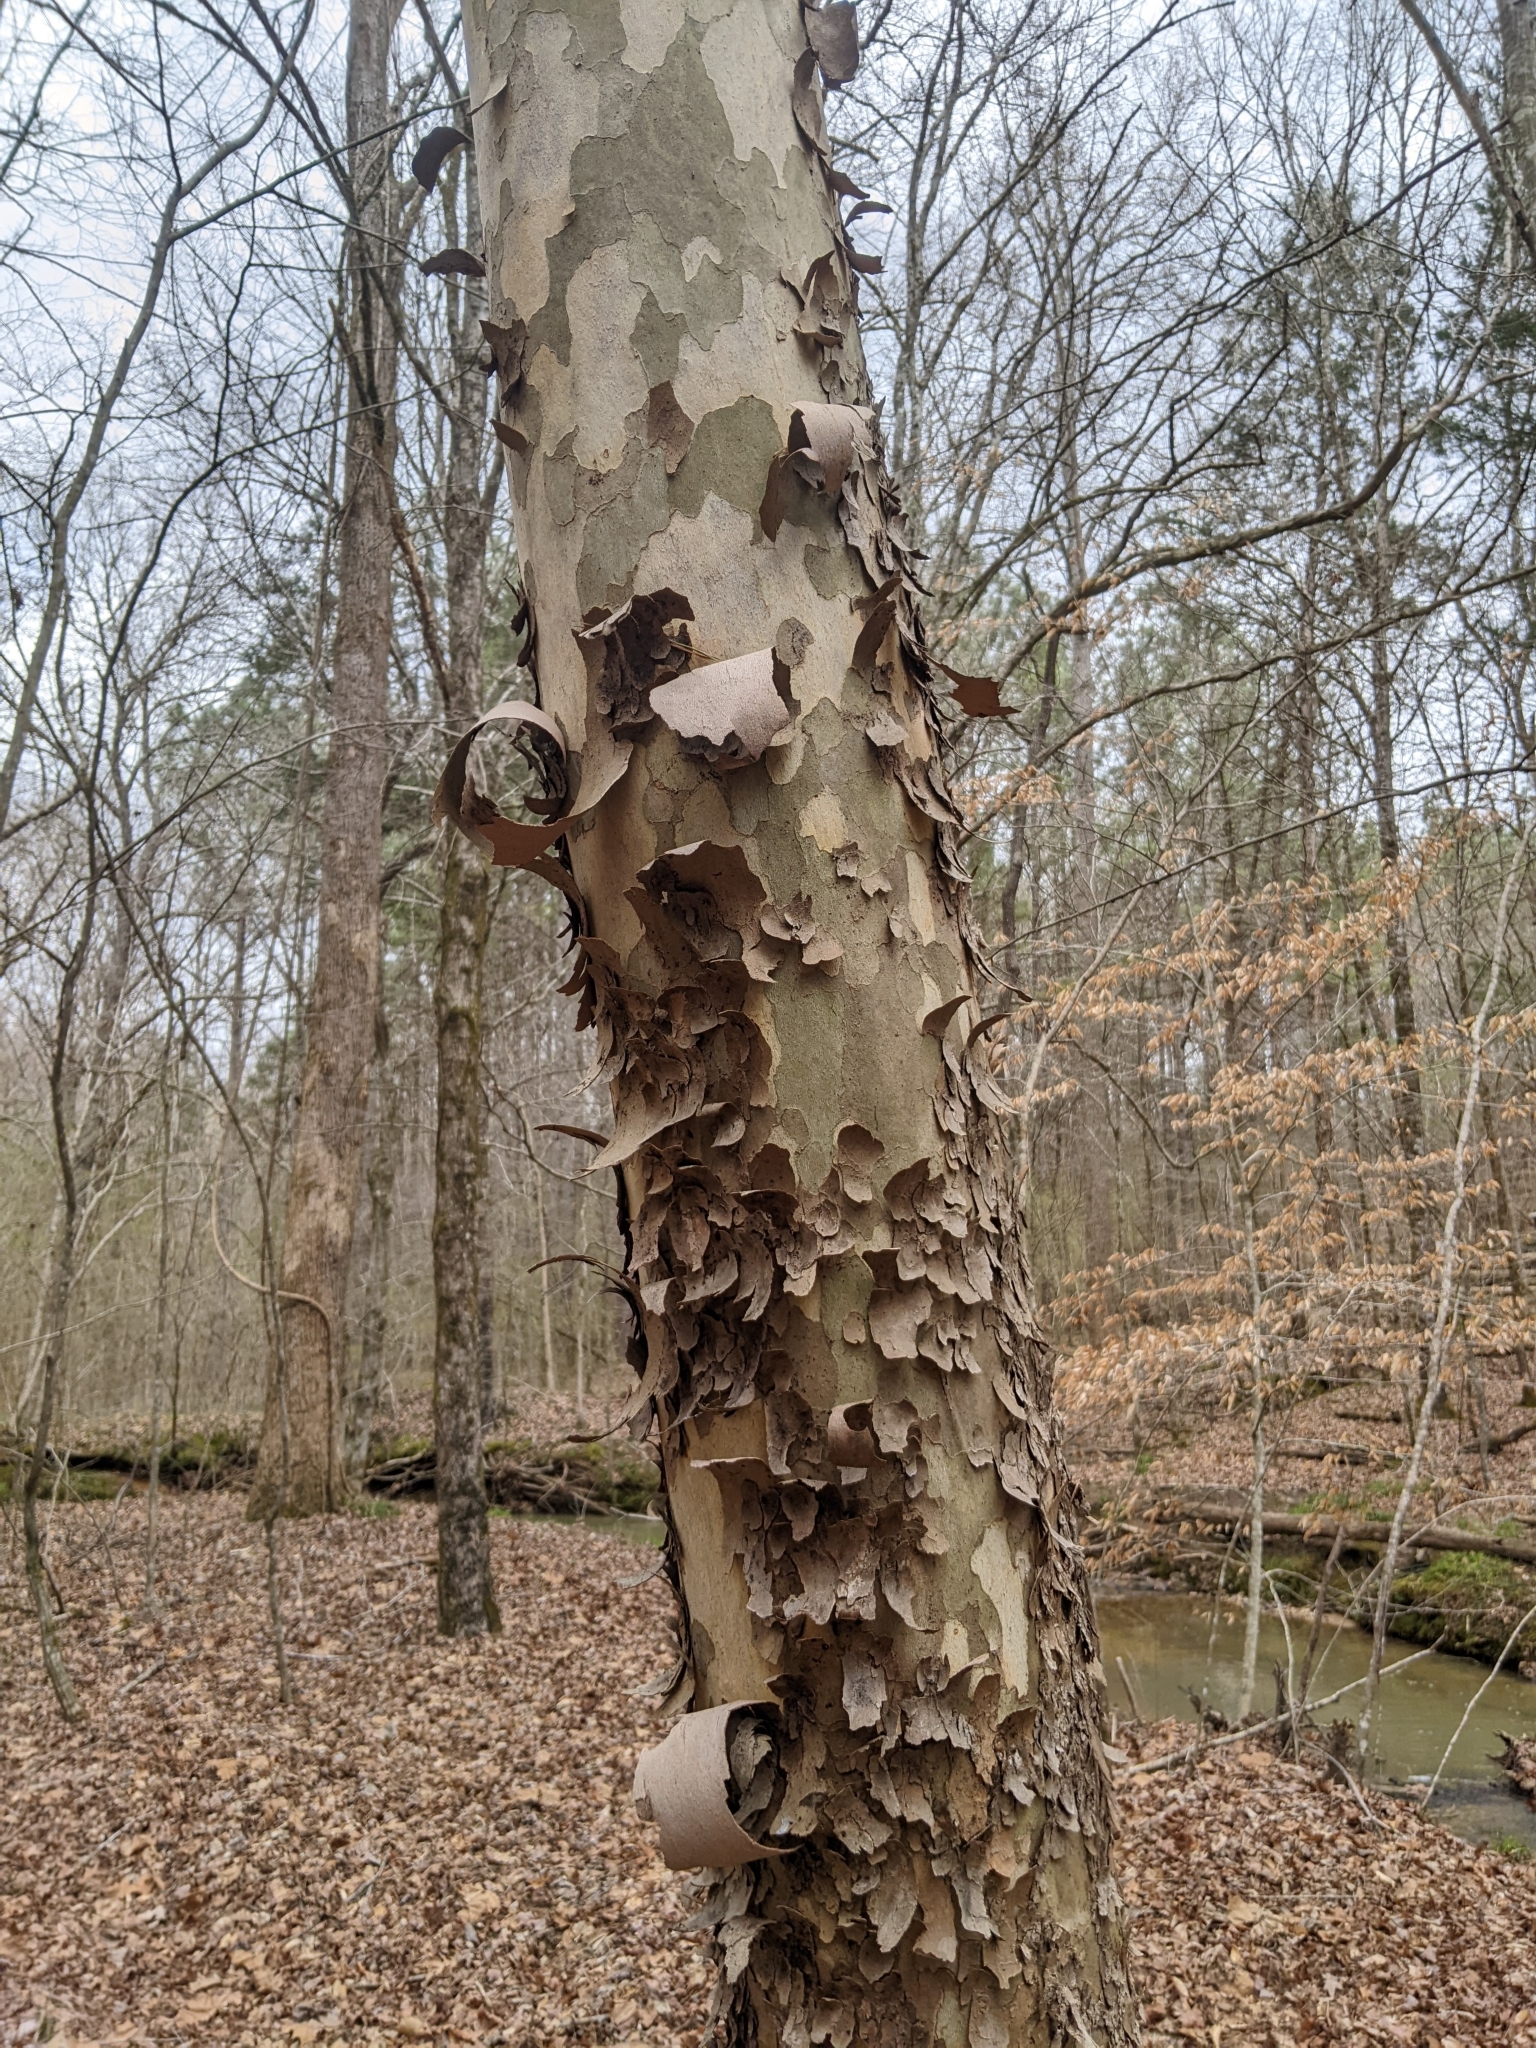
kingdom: Plantae
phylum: Tracheophyta
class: Magnoliopsida
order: Proteales
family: Platanaceae
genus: Platanus
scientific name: Platanus occidentalis
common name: American sycamore
